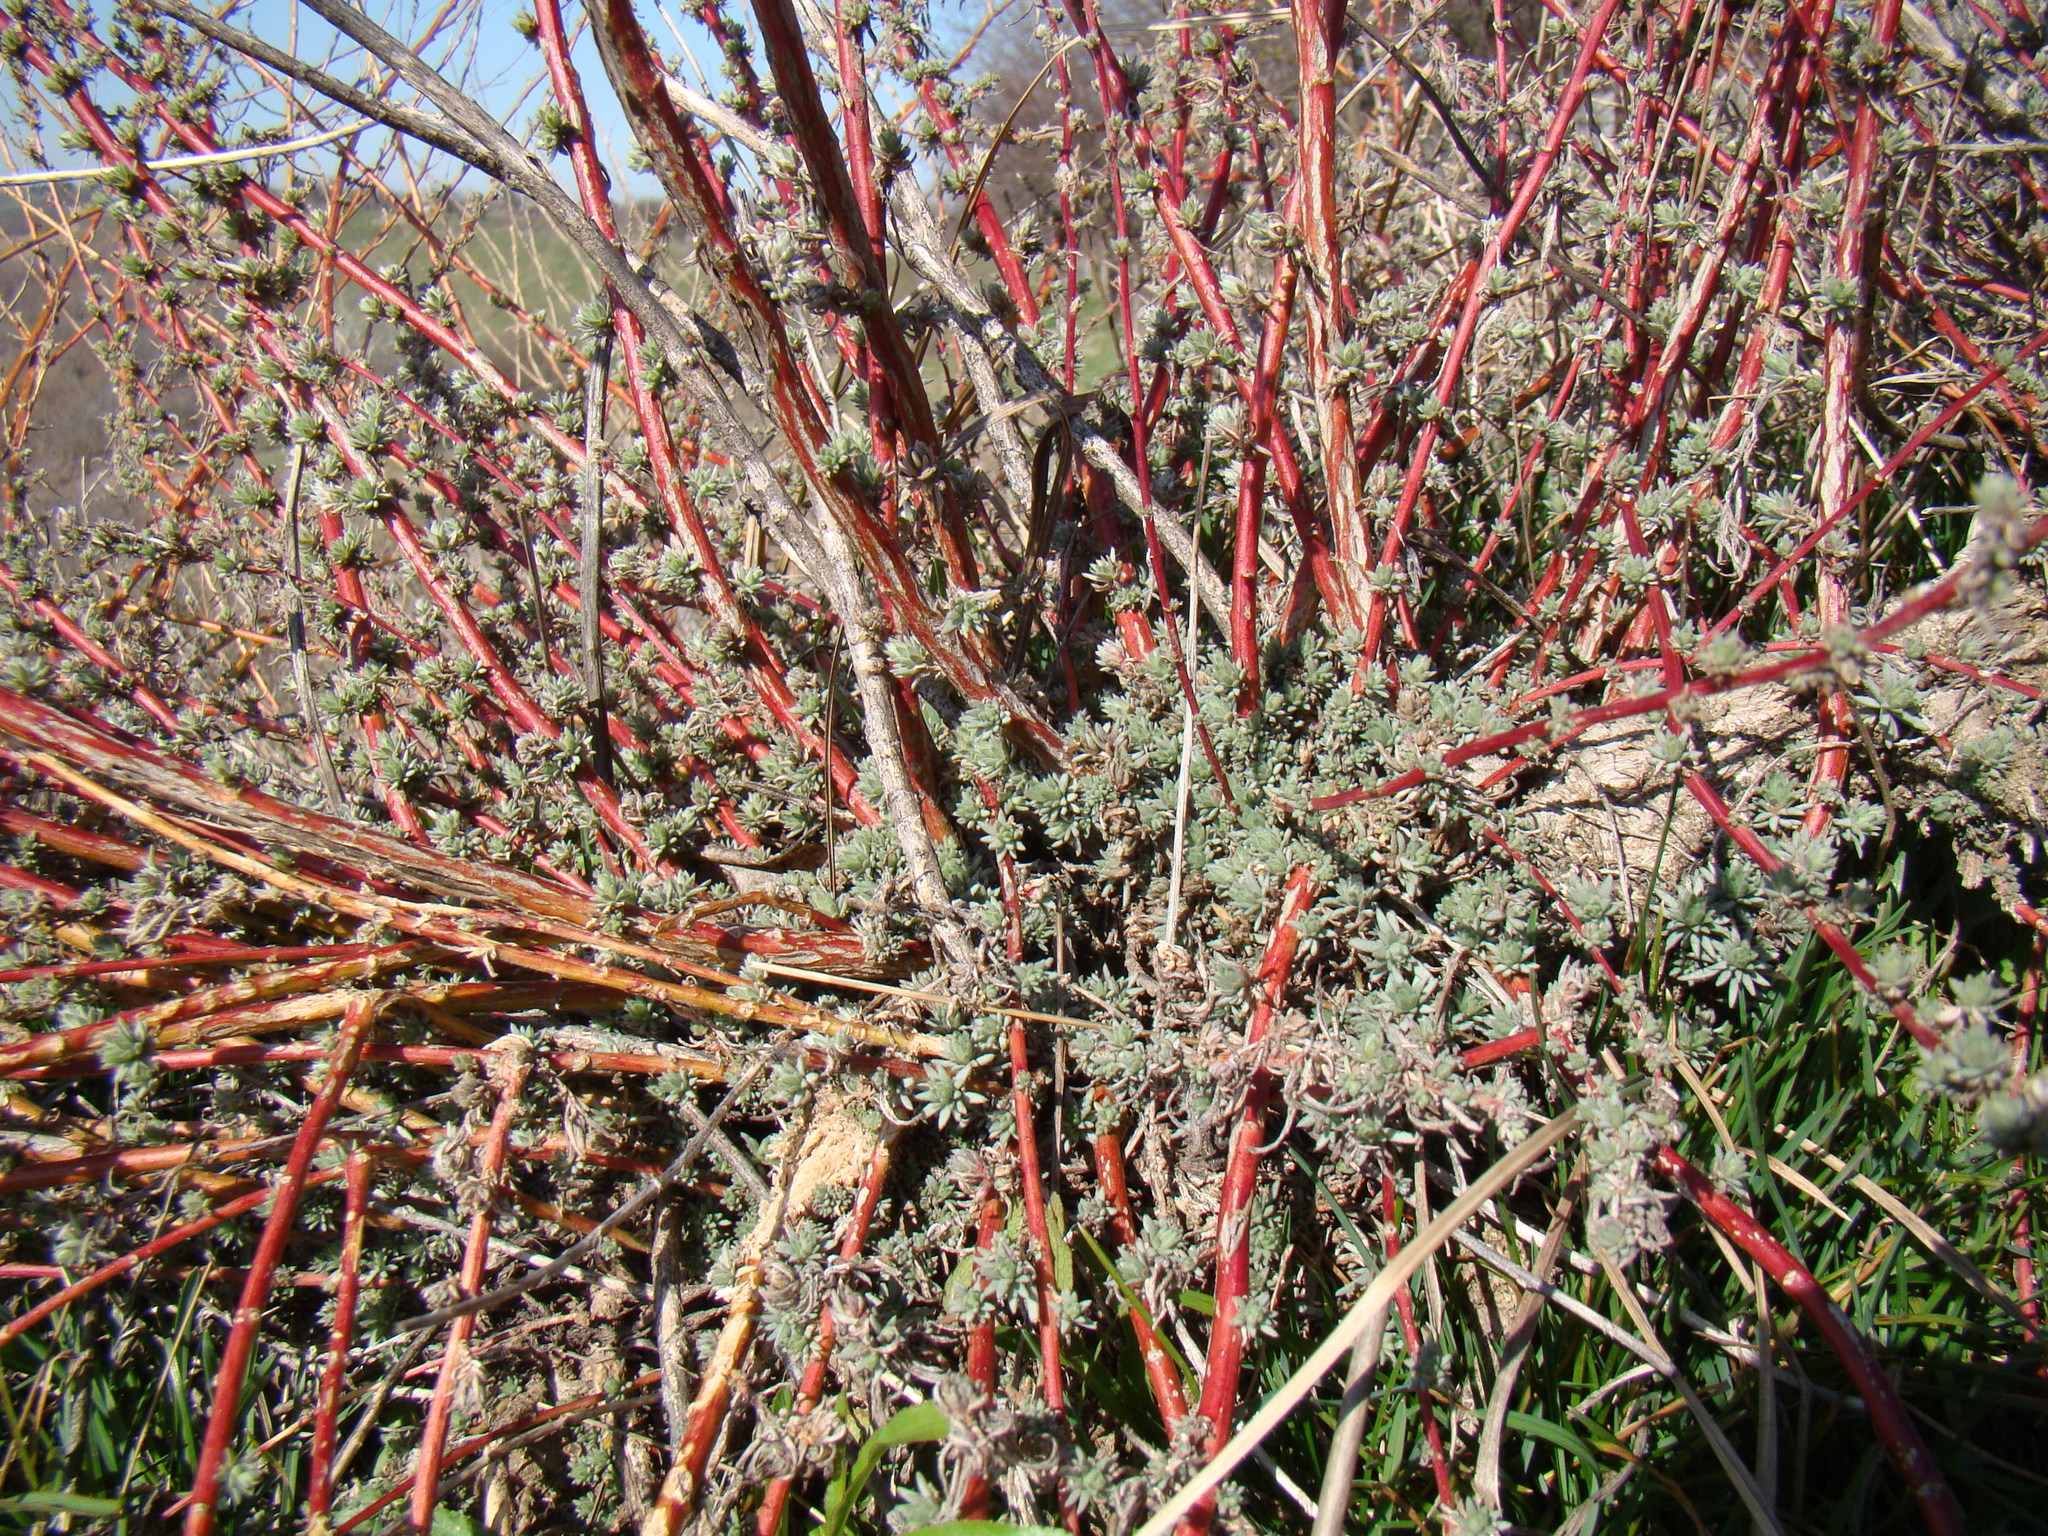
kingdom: Plantae
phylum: Tracheophyta
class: Magnoliopsida
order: Caryophyllales
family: Amaranthaceae
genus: Bassia
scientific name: Bassia prostrata
